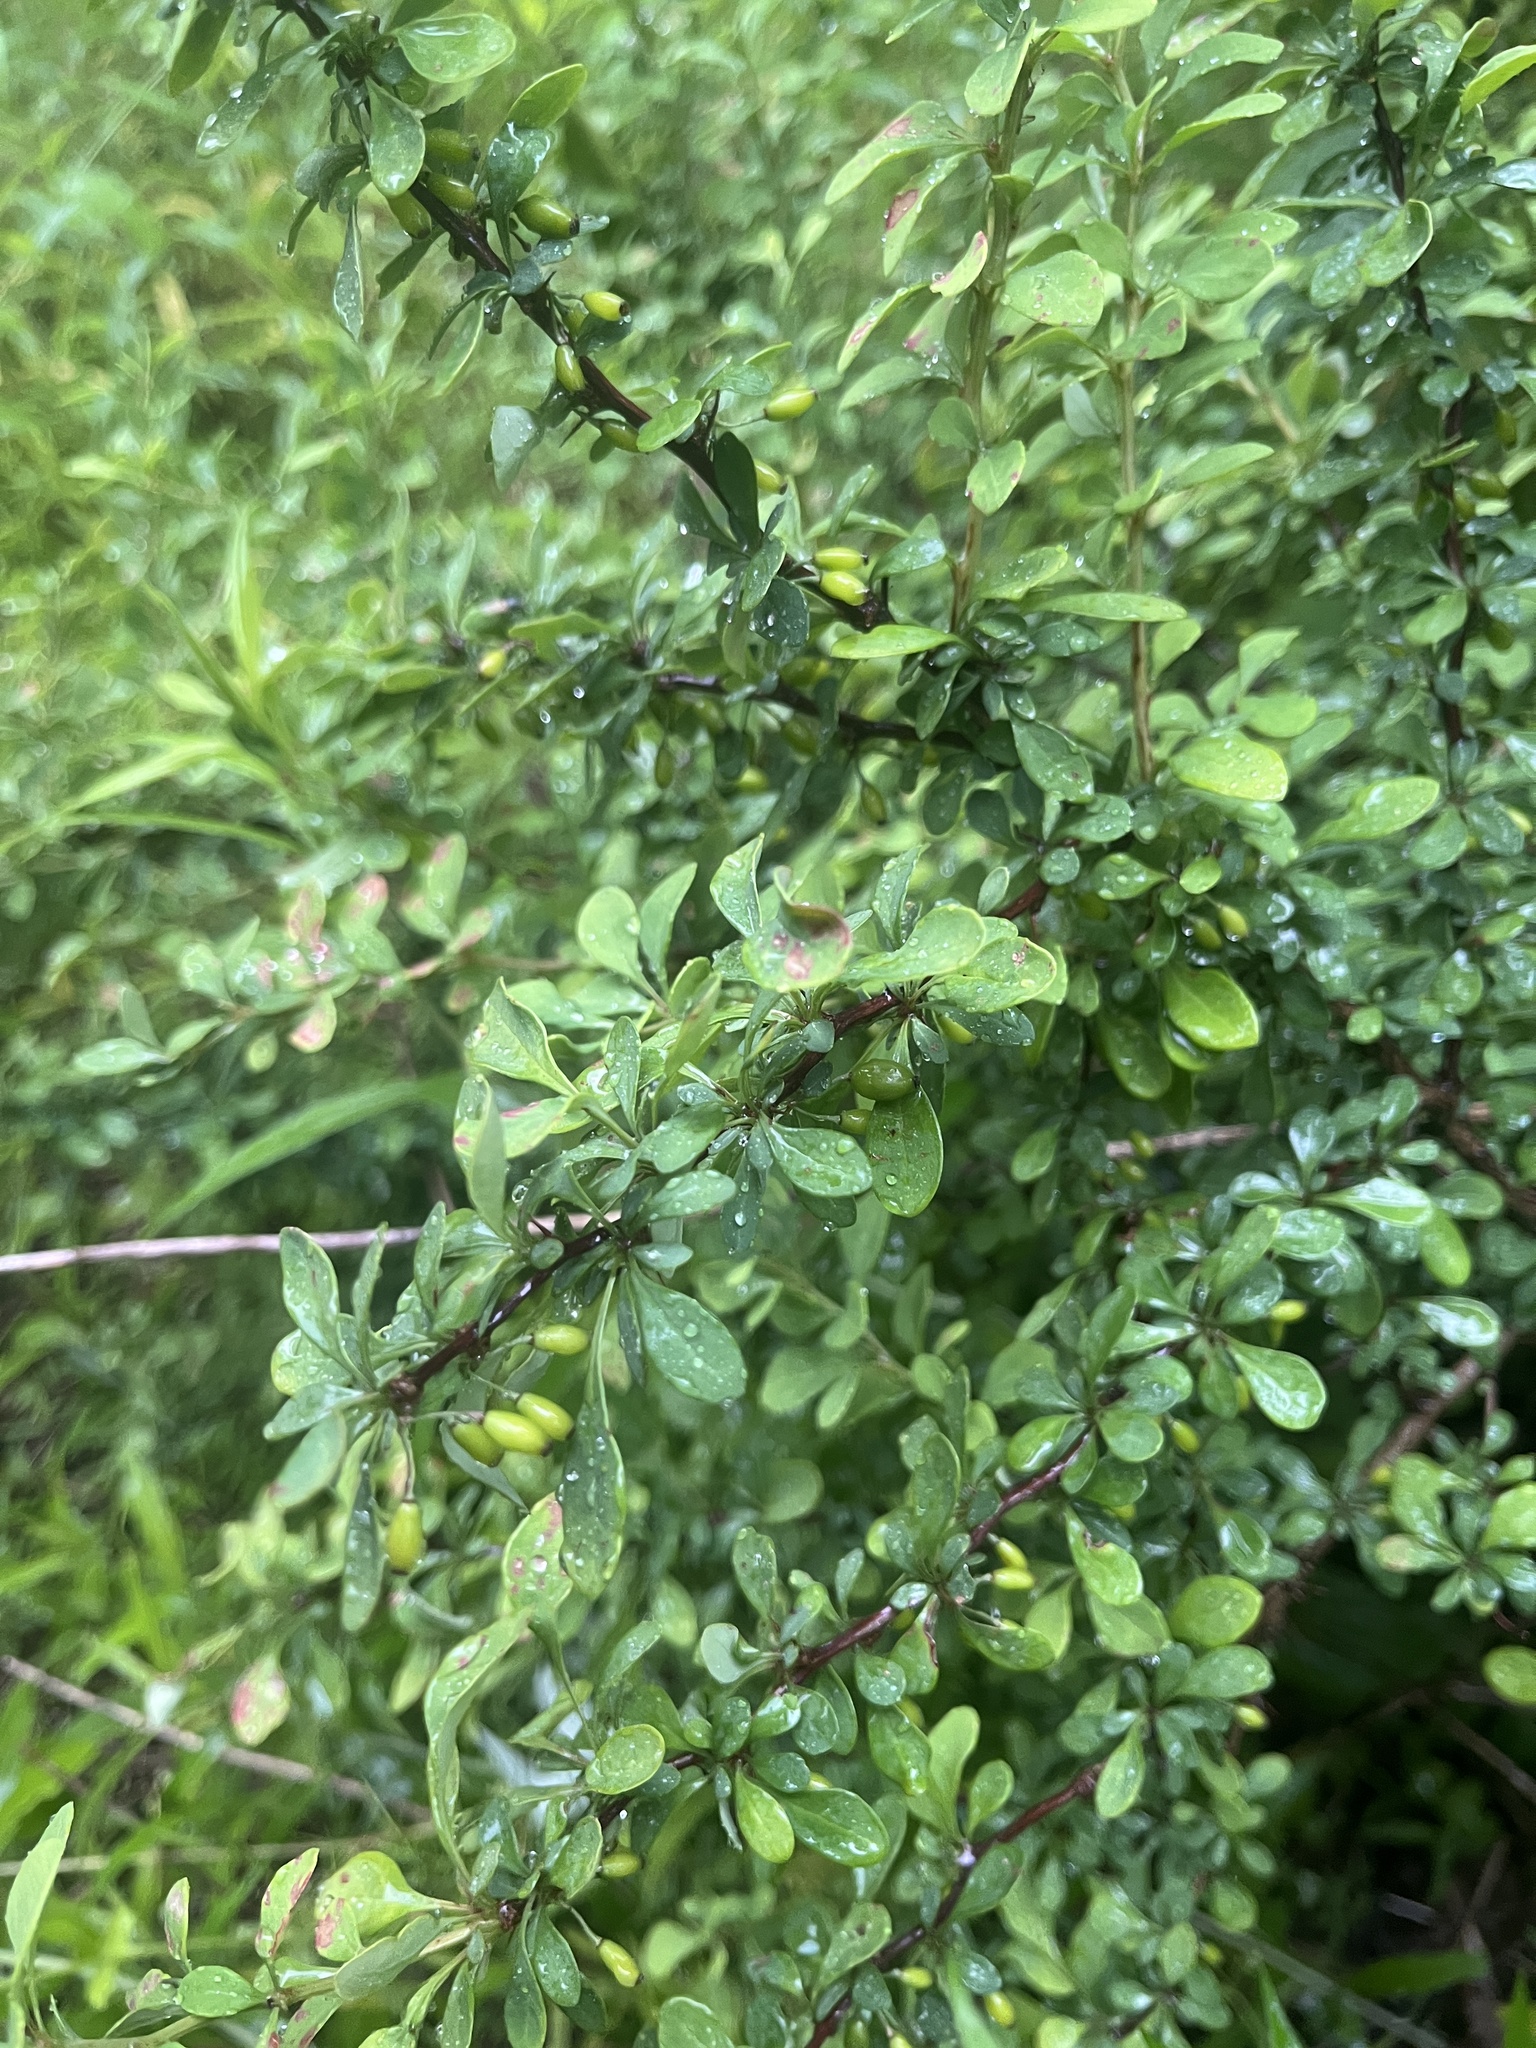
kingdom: Plantae
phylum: Tracheophyta
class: Magnoliopsida
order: Ranunculales
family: Berberidaceae
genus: Berberis
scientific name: Berberis thunbergii
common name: Japanese barberry
